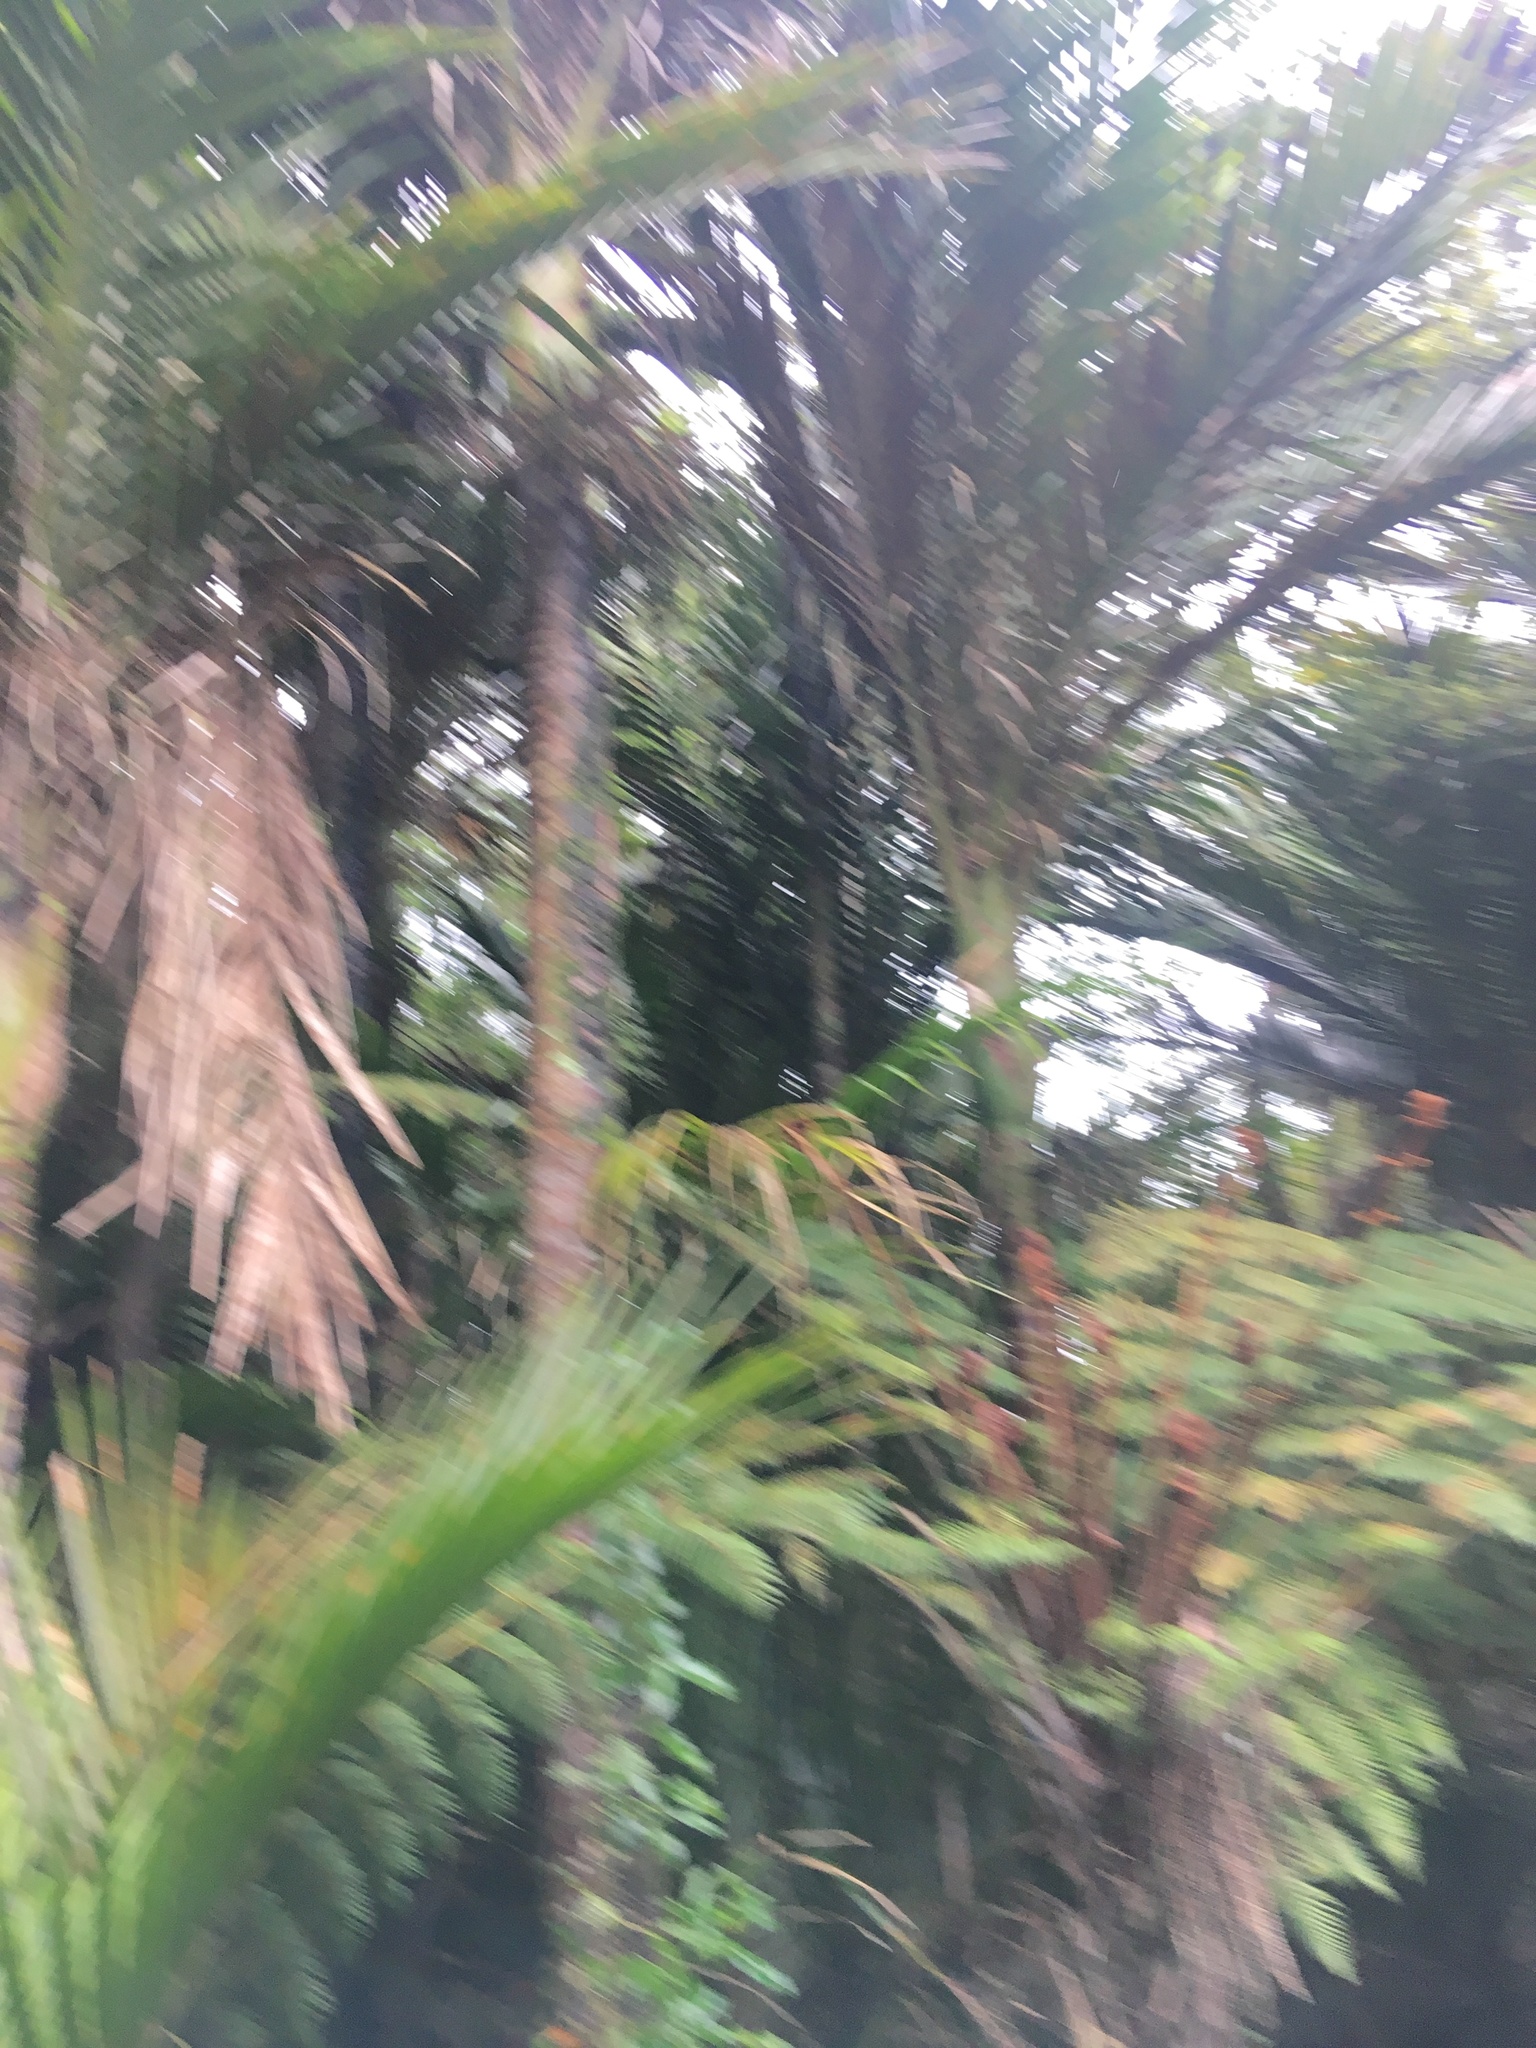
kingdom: Plantae
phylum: Tracheophyta
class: Liliopsida
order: Arecales
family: Arecaceae
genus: Rhopalostylis
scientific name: Rhopalostylis sapida
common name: Feather-duster palm
